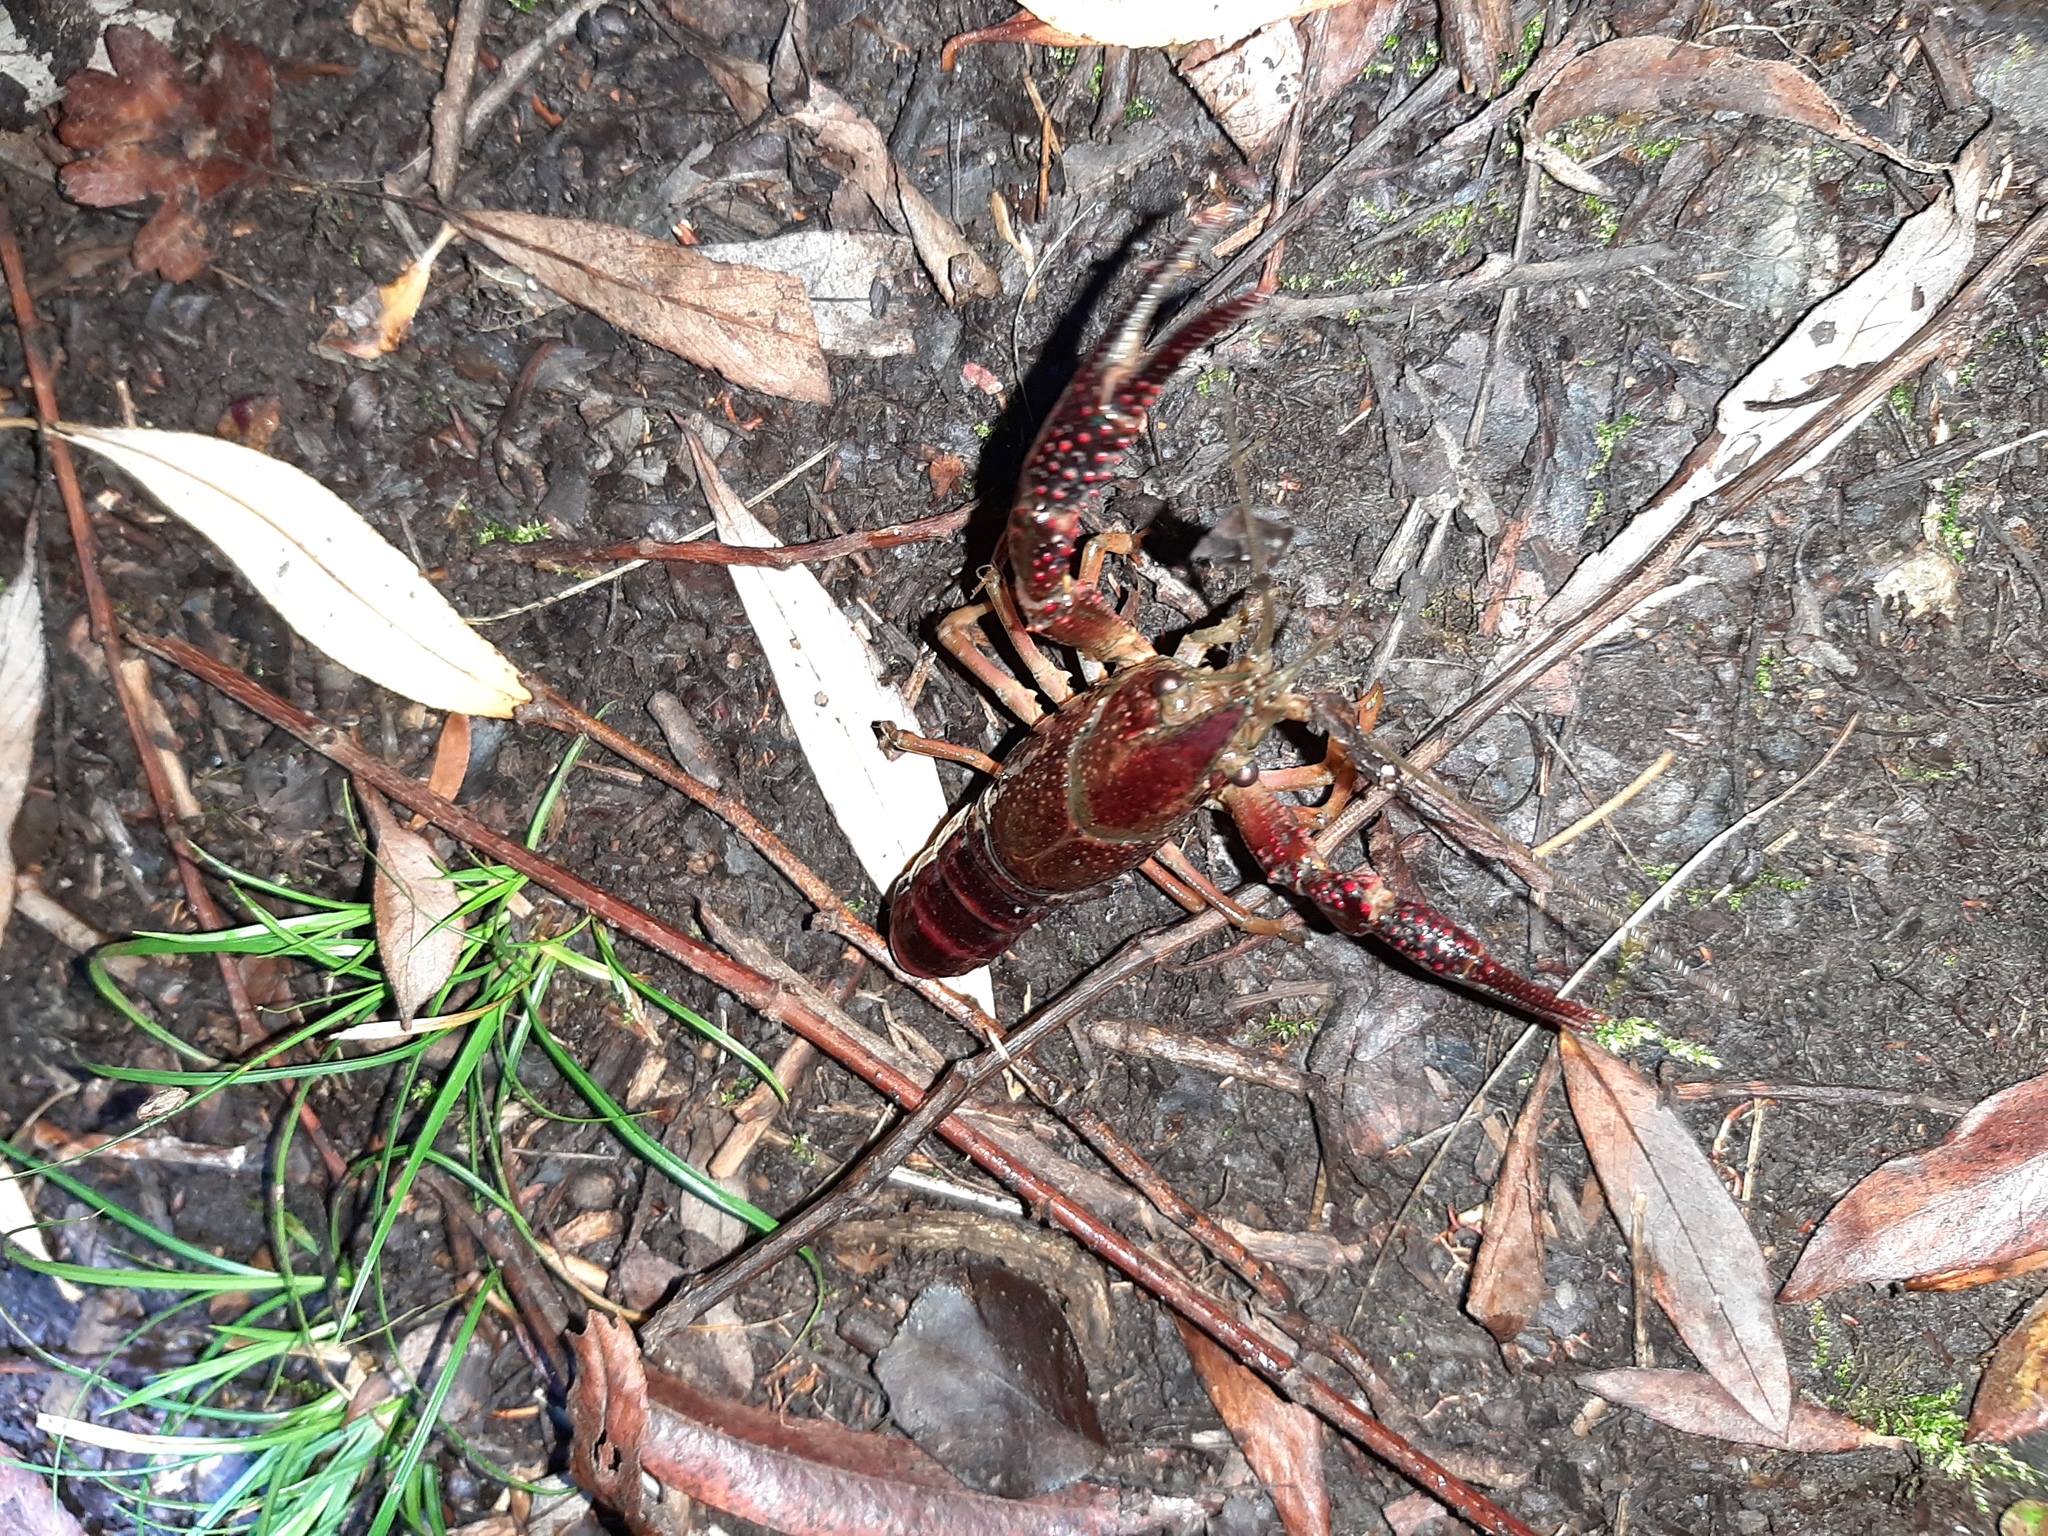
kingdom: Animalia
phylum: Arthropoda
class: Malacostraca
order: Decapoda
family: Cambaridae
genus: Procambarus
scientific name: Procambarus clarkii
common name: Red swamp crayfish
